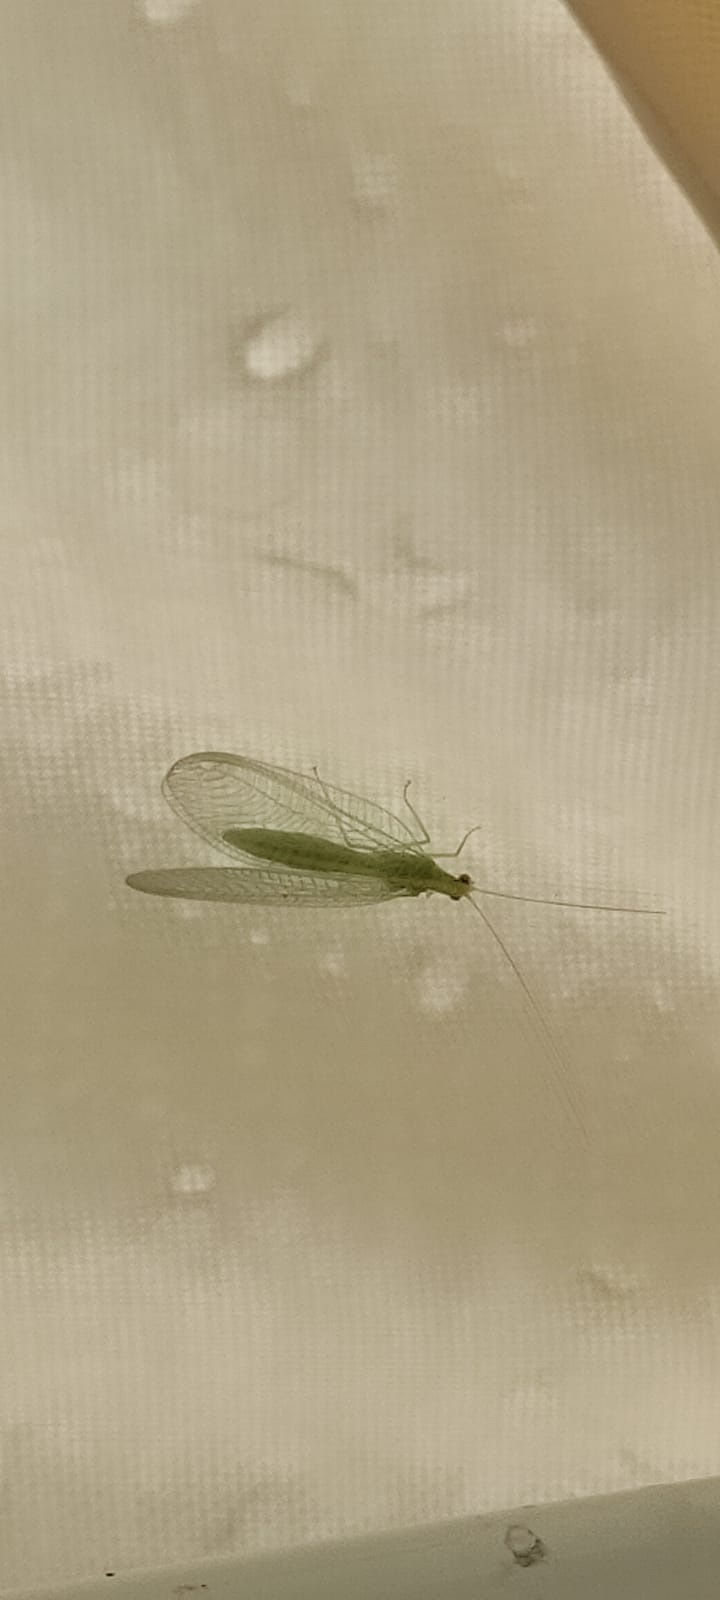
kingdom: Animalia
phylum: Arthropoda
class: Insecta
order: Neuroptera
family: Chrysopidae
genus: Chrysoperla
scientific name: Chrysoperla pallida
